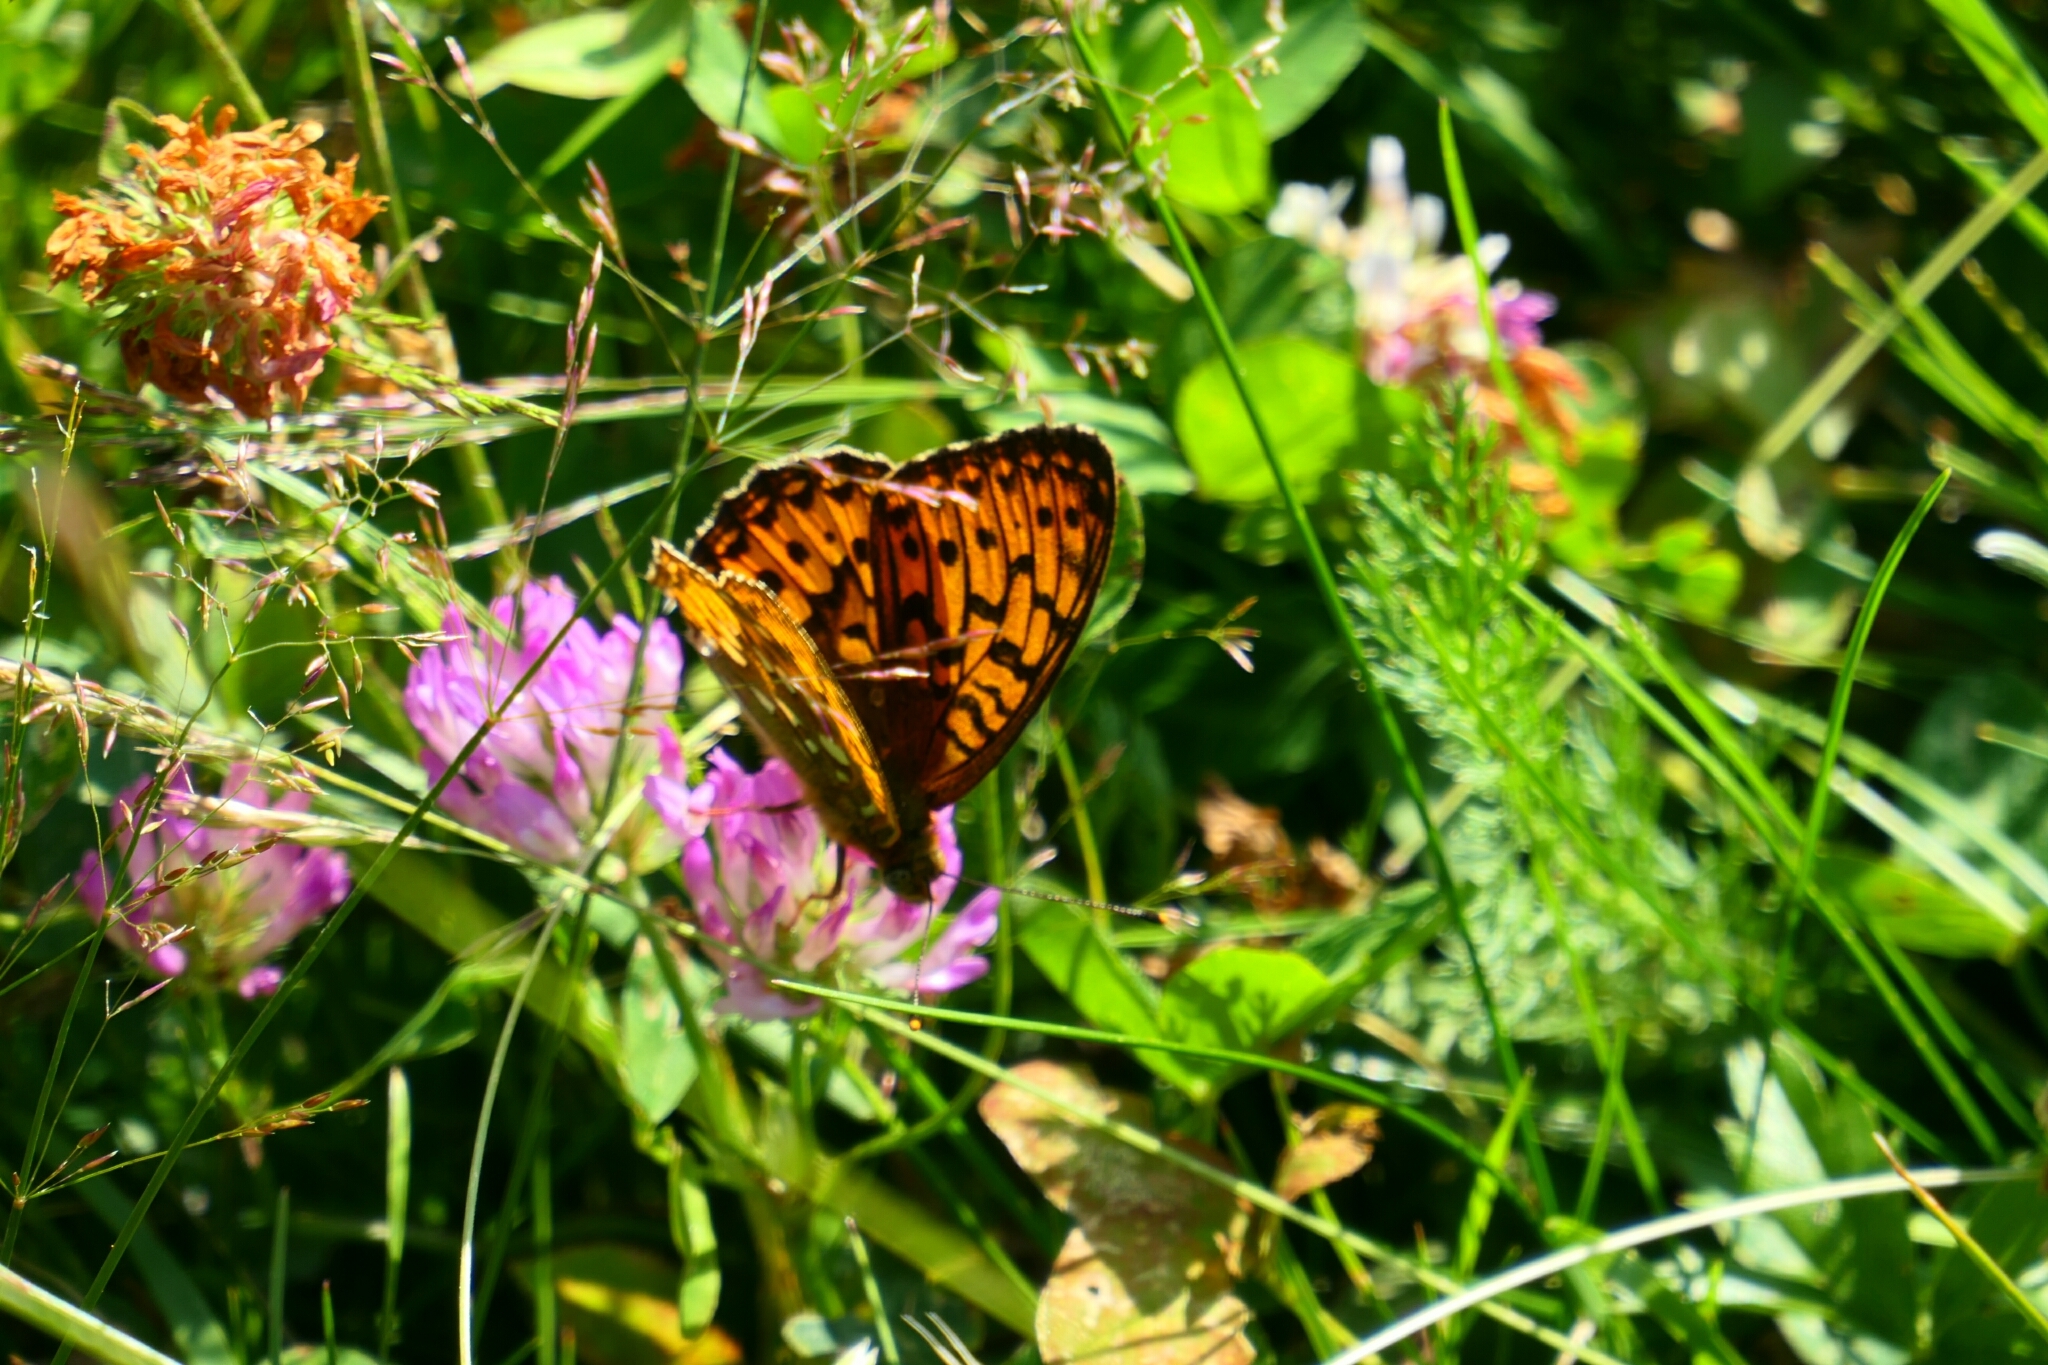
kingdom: Animalia
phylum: Arthropoda
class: Insecta
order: Lepidoptera
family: Nymphalidae
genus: Speyeria
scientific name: Speyeria aglaja
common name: Dark green fritillary
